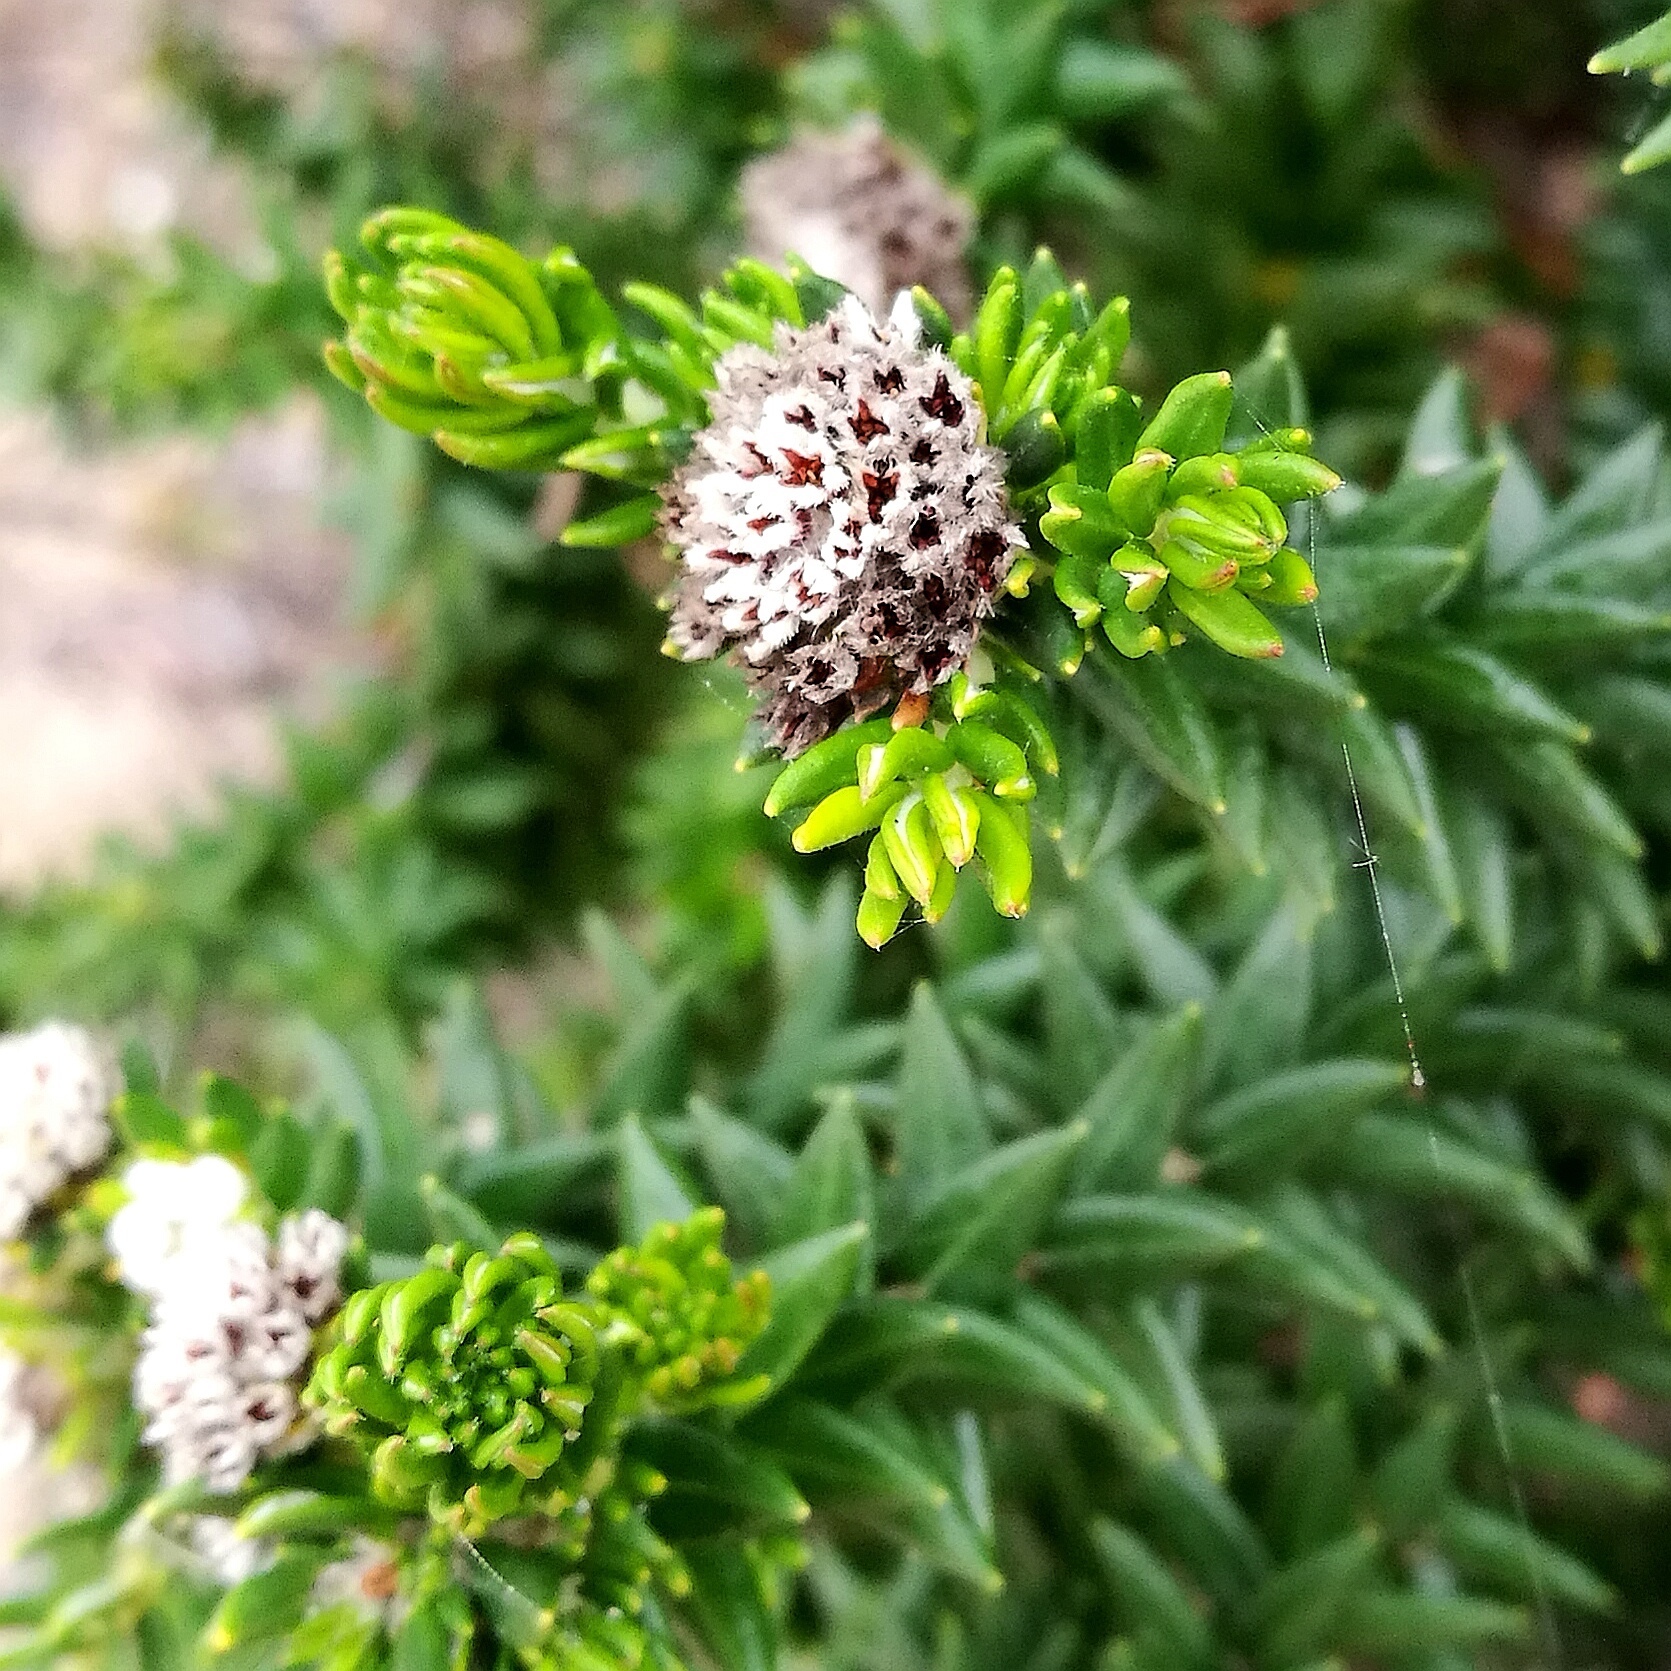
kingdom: Plantae
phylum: Tracheophyta
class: Magnoliopsida
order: Rosales
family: Rhamnaceae
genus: Phylica
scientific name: Phylica litoralis
